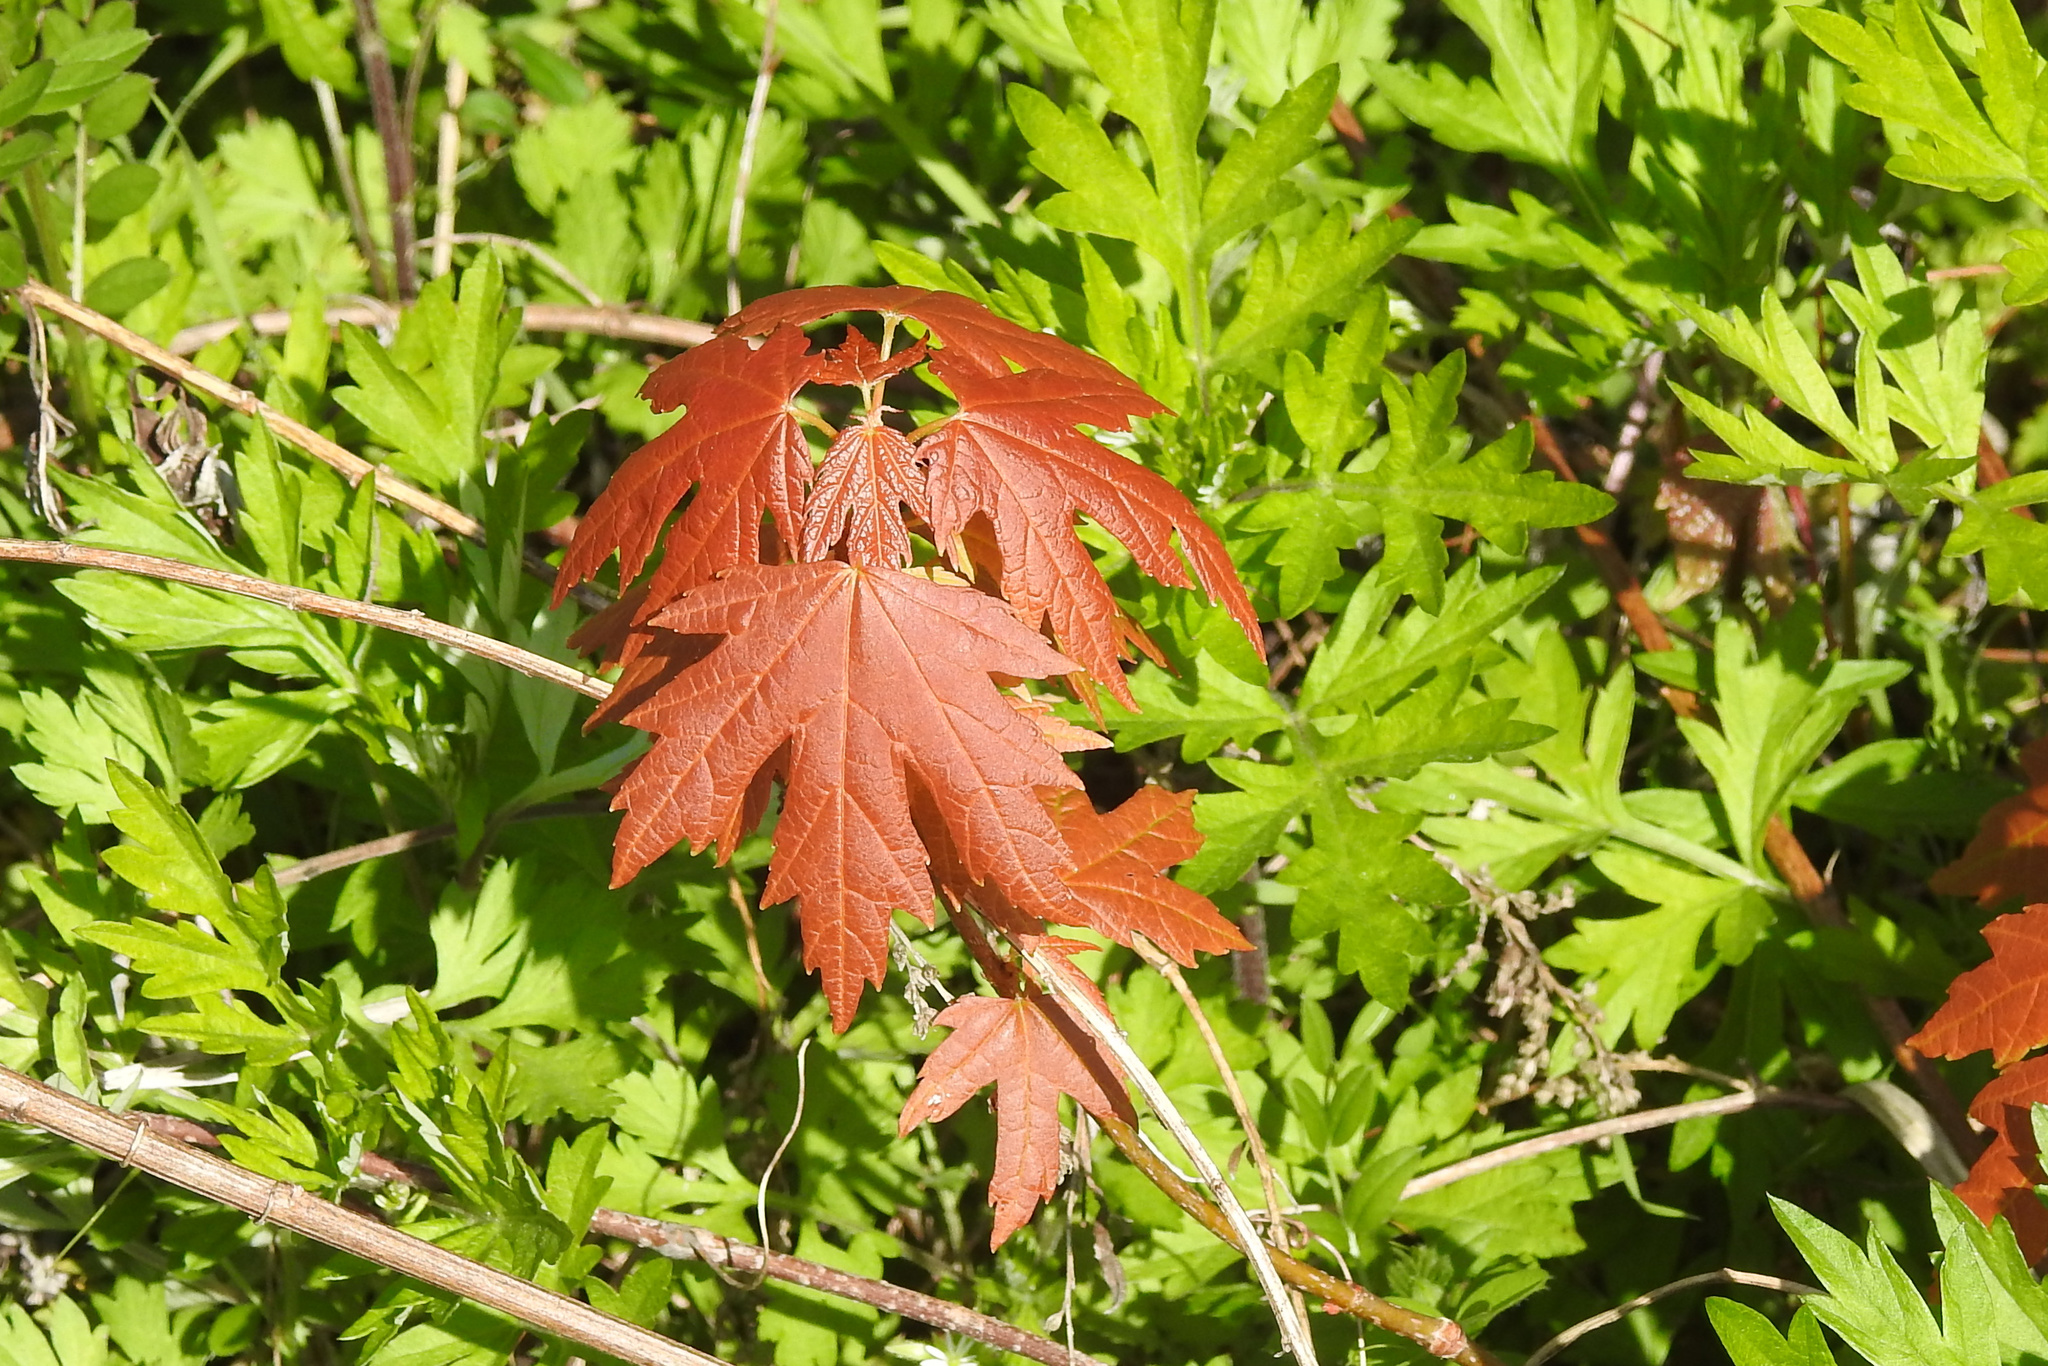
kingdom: Plantae
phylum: Tracheophyta
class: Magnoliopsida
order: Sapindales
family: Sapindaceae
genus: Acer
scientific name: Acer saccharinum
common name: Silver maple
